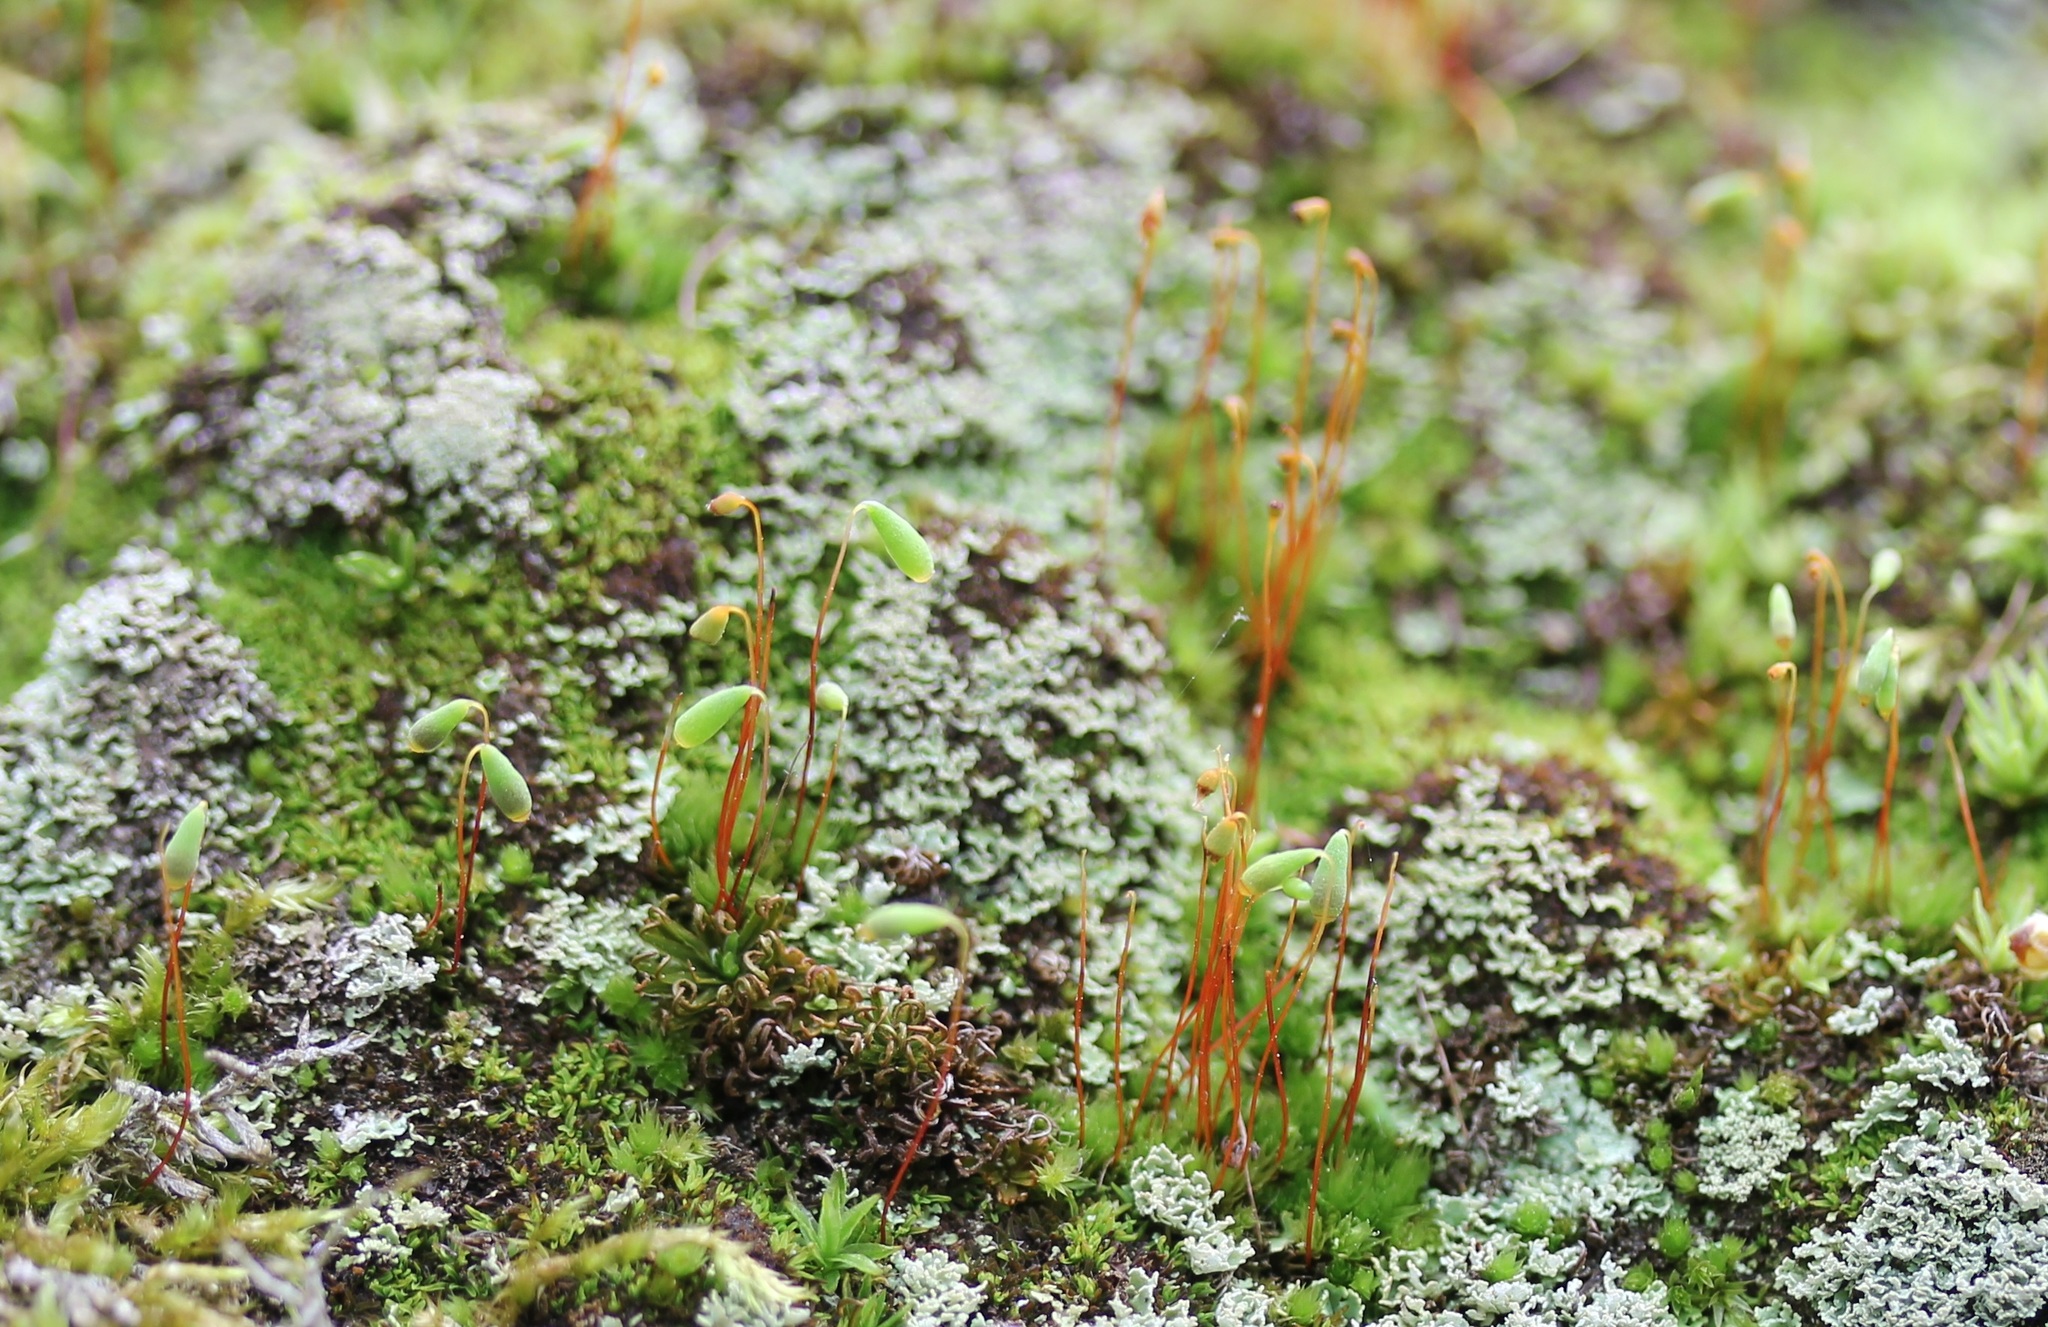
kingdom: Plantae
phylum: Bryophyta
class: Bryopsida
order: Bryales
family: Bryaceae
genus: Rosulabryum
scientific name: Rosulabryum capillare
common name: Capillary thread-moss
